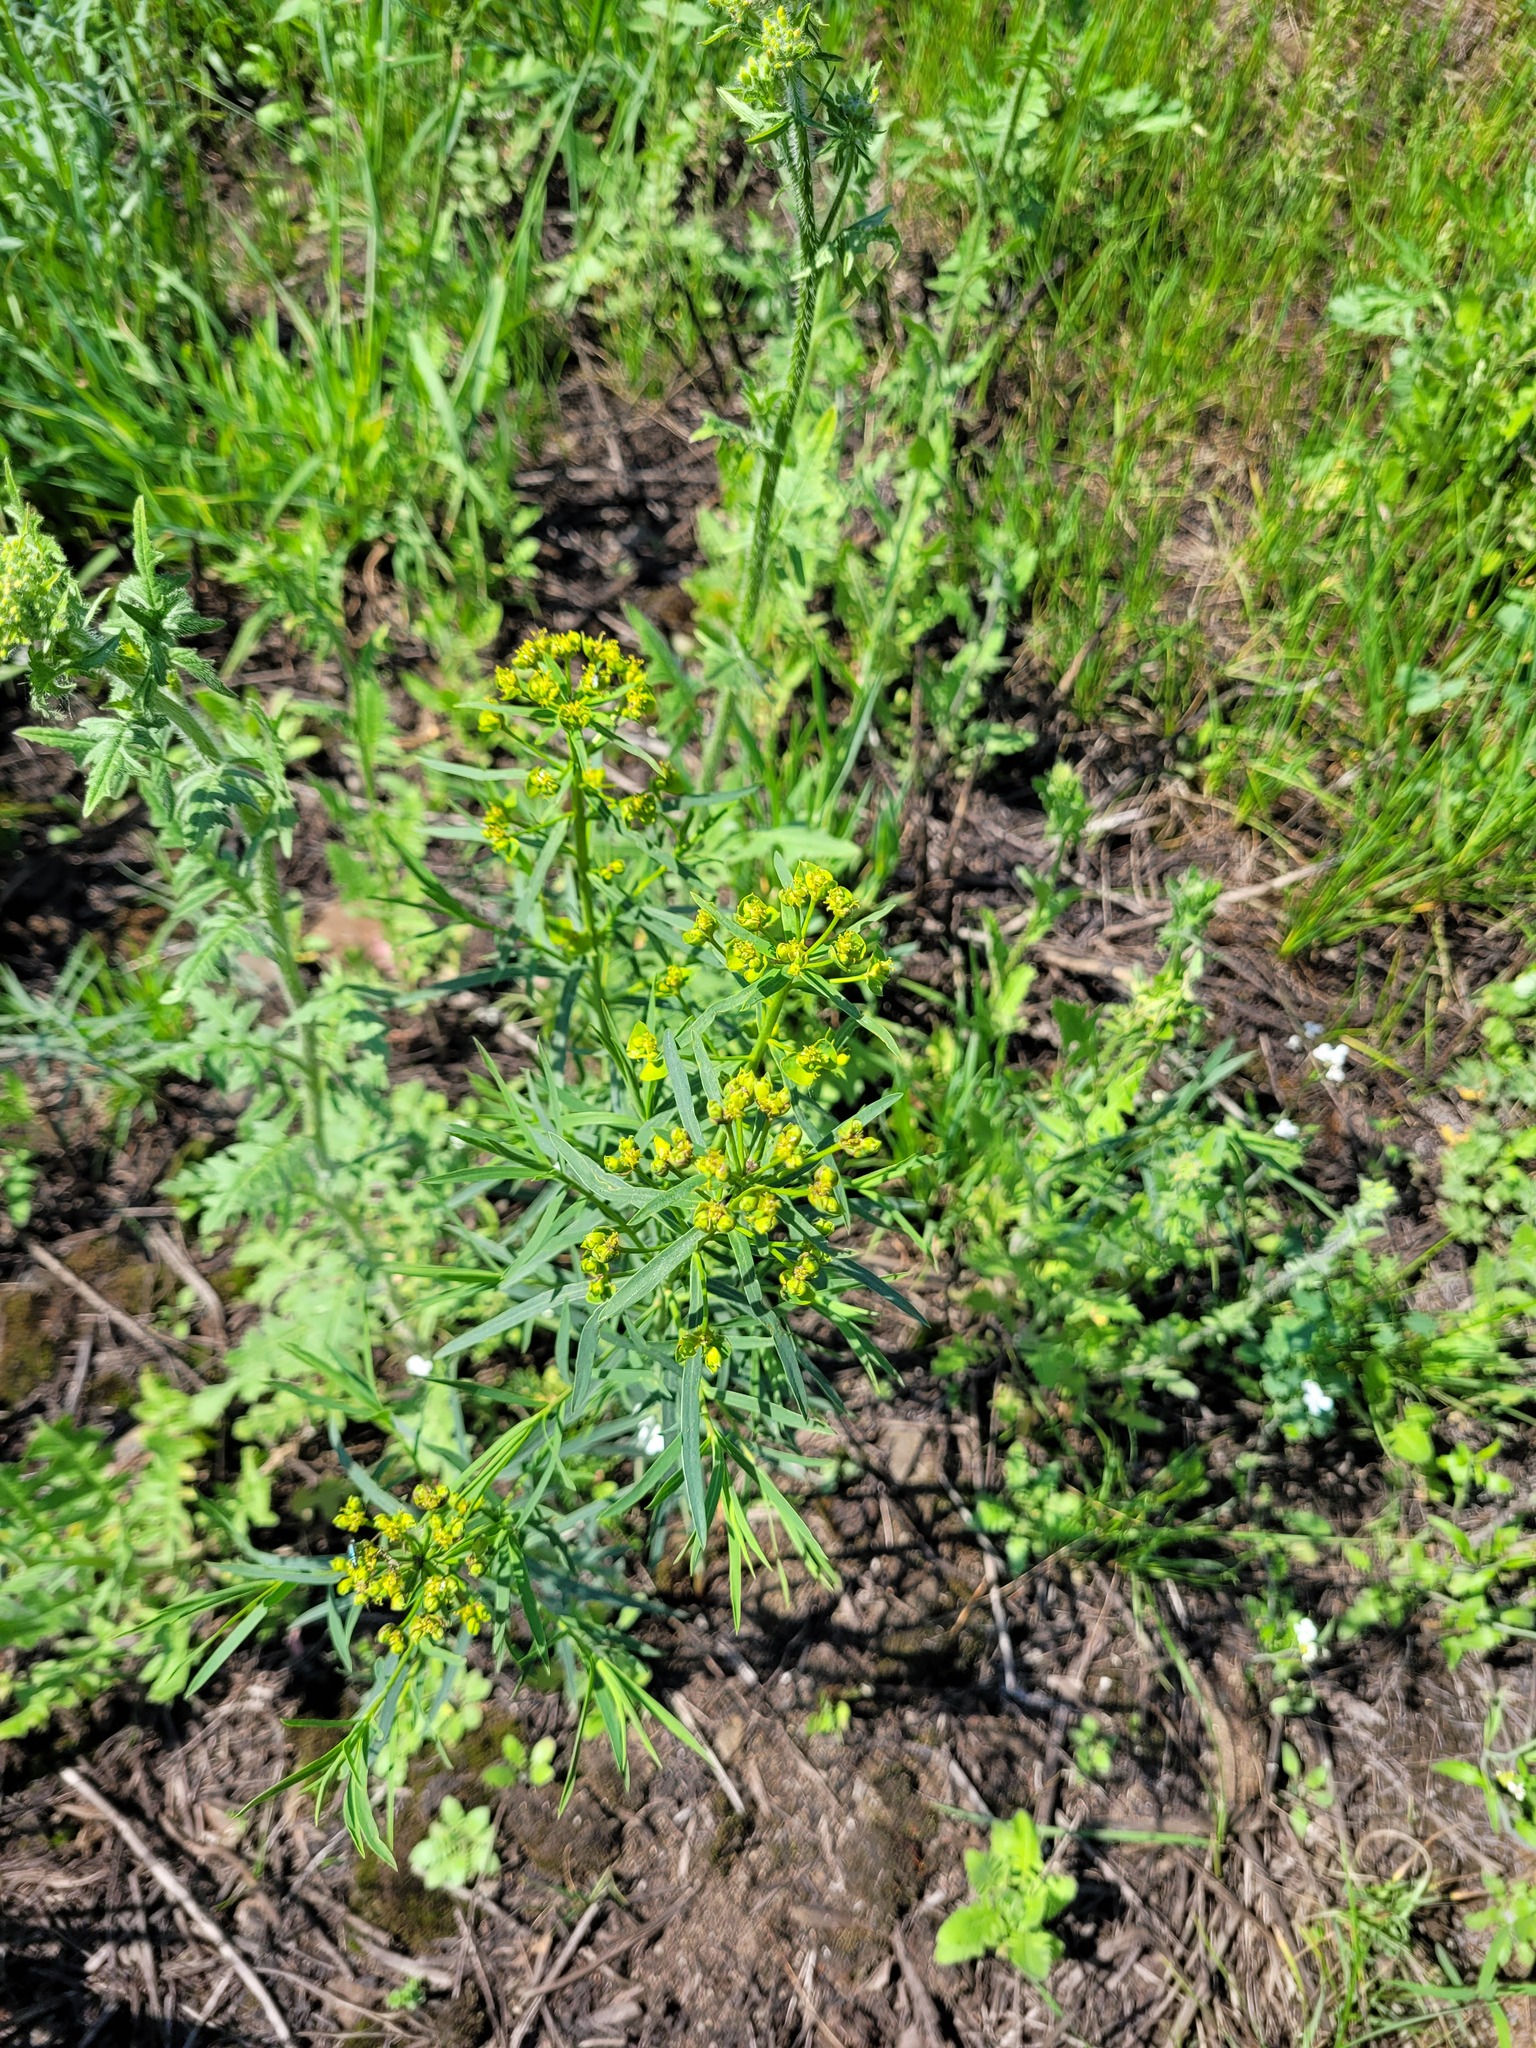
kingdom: Plantae
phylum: Tracheophyta
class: Magnoliopsida
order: Malpighiales
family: Euphorbiaceae
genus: Euphorbia
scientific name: Euphorbia virgata
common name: Leafy spurge
